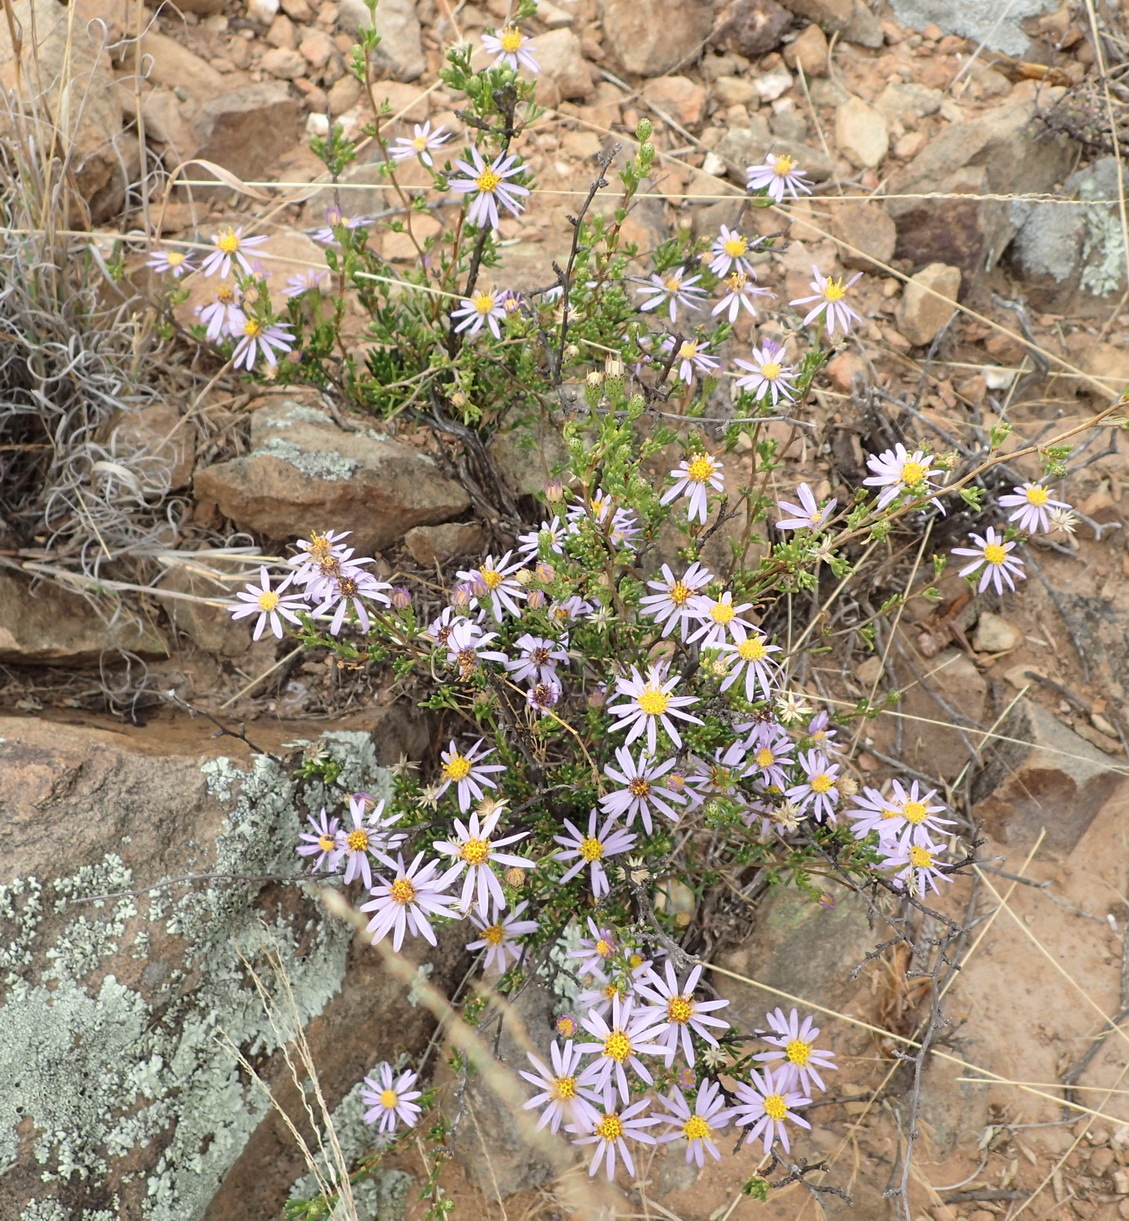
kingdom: Plantae
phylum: Tracheophyta
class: Magnoliopsida
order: Asterales
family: Asteraceae
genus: Felicia
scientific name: Felicia filifolia
